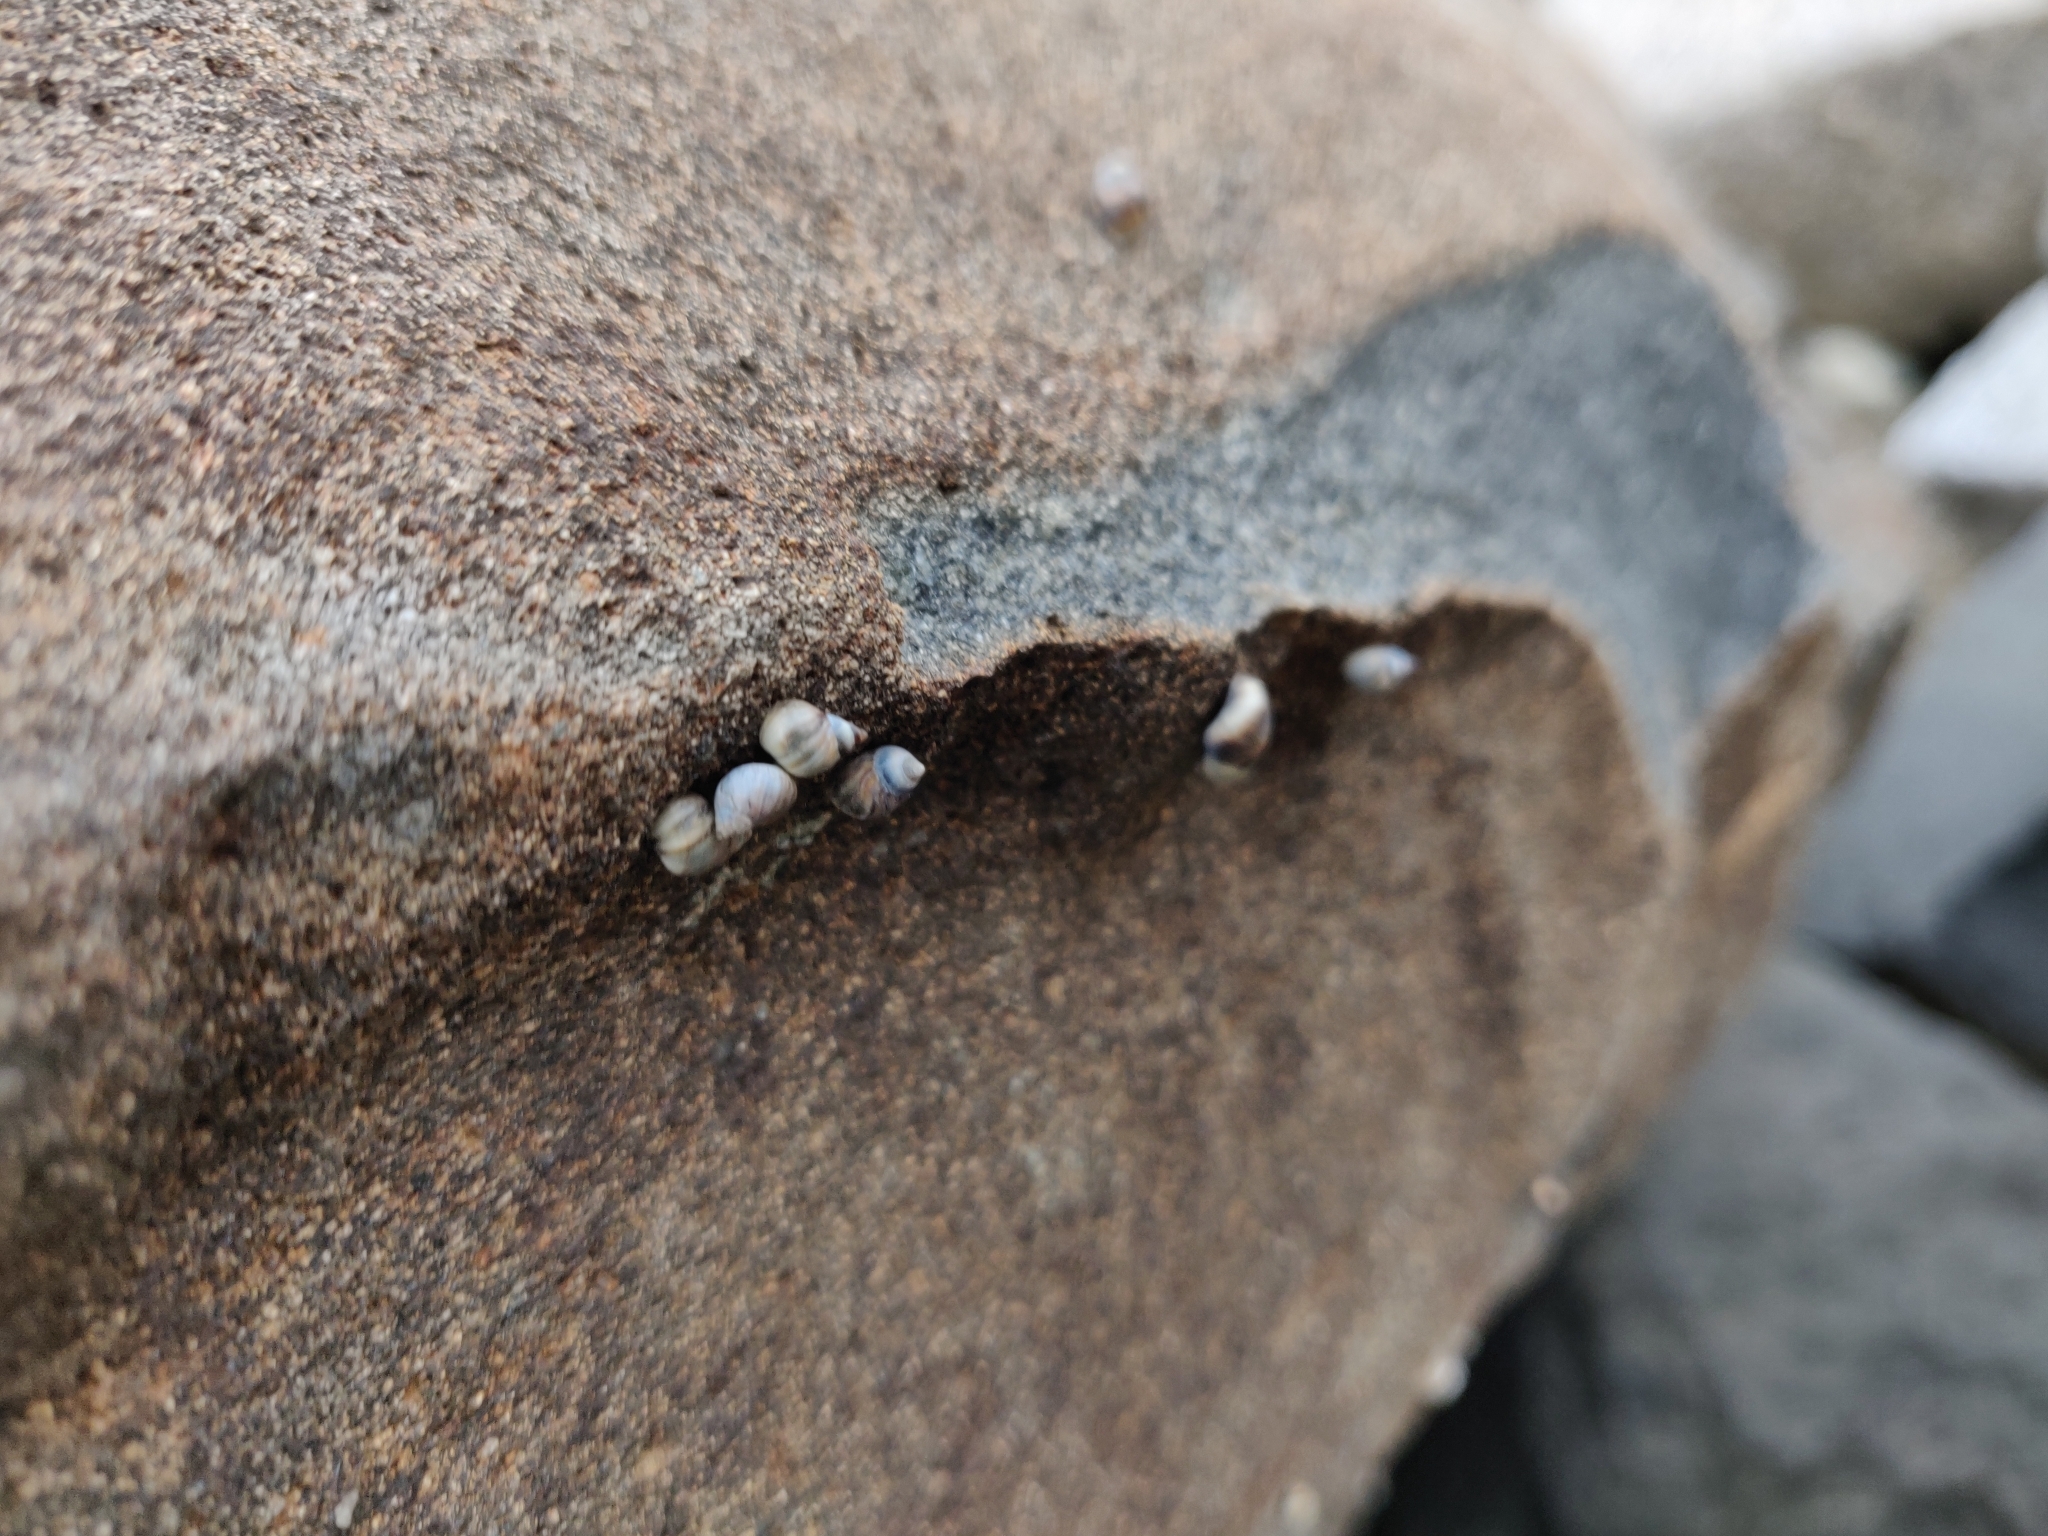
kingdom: Animalia
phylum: Mollusca
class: Gastropoda
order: Littorinimorpha
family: Littorinidae
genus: Melarhaphe
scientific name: Melarhaphe neritoides
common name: Small periwinkle
